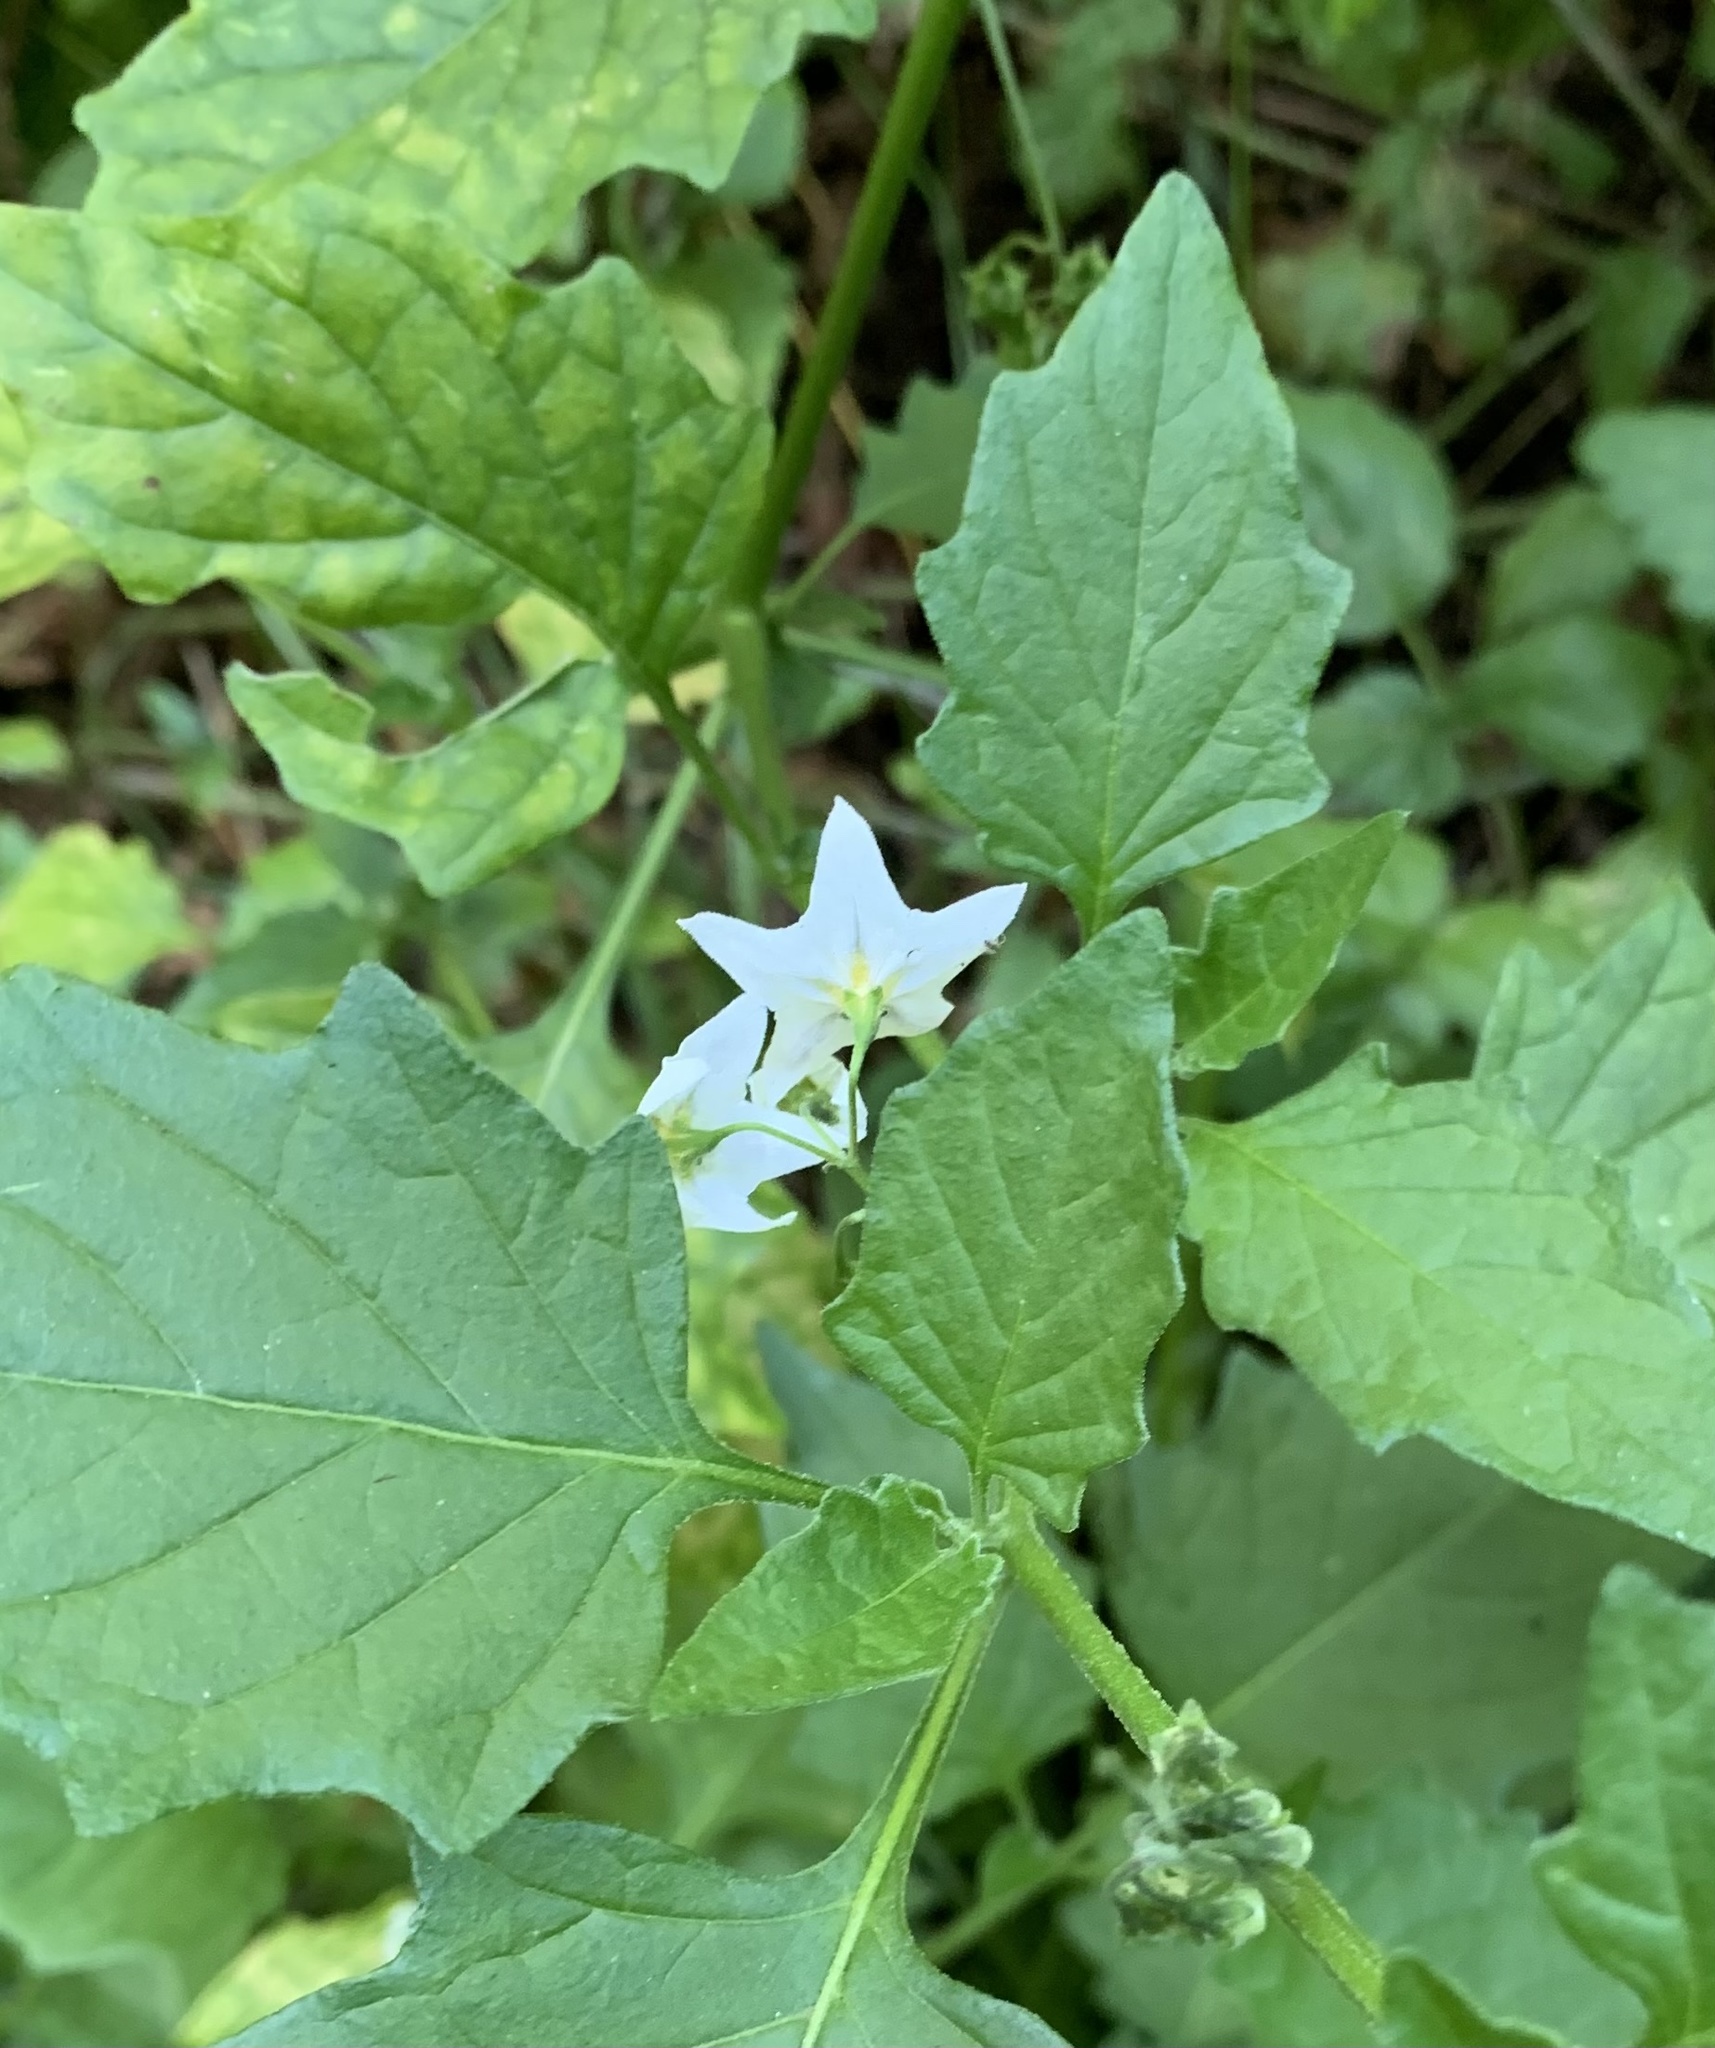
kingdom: Plantae
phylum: Tracheophyta
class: Magnoliopsida
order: Solanales
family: Solanaceae
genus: Solanum
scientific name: Solanum furcatum
